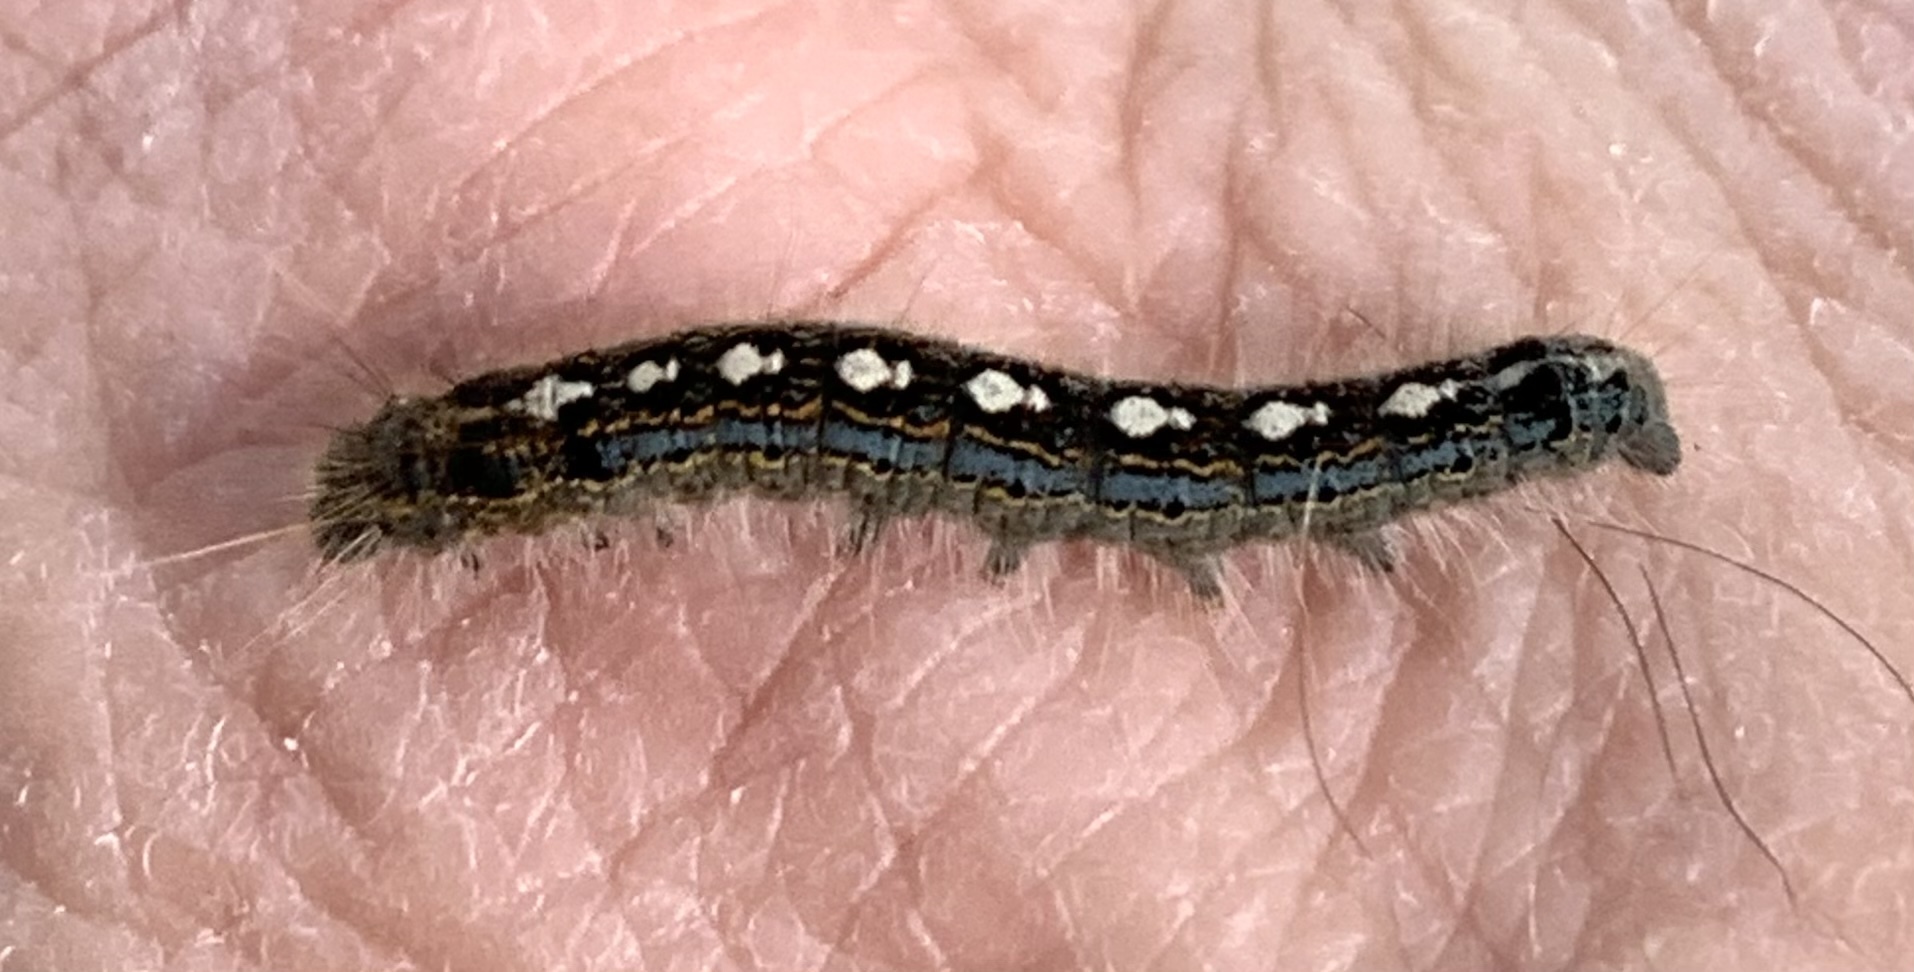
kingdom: Animalia
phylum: Arthropoda
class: Insecta
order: Lepidoptera
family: Lasiocampidae
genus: Malacosoma
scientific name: Malacosoma disstria
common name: Forest tent caterpillar
